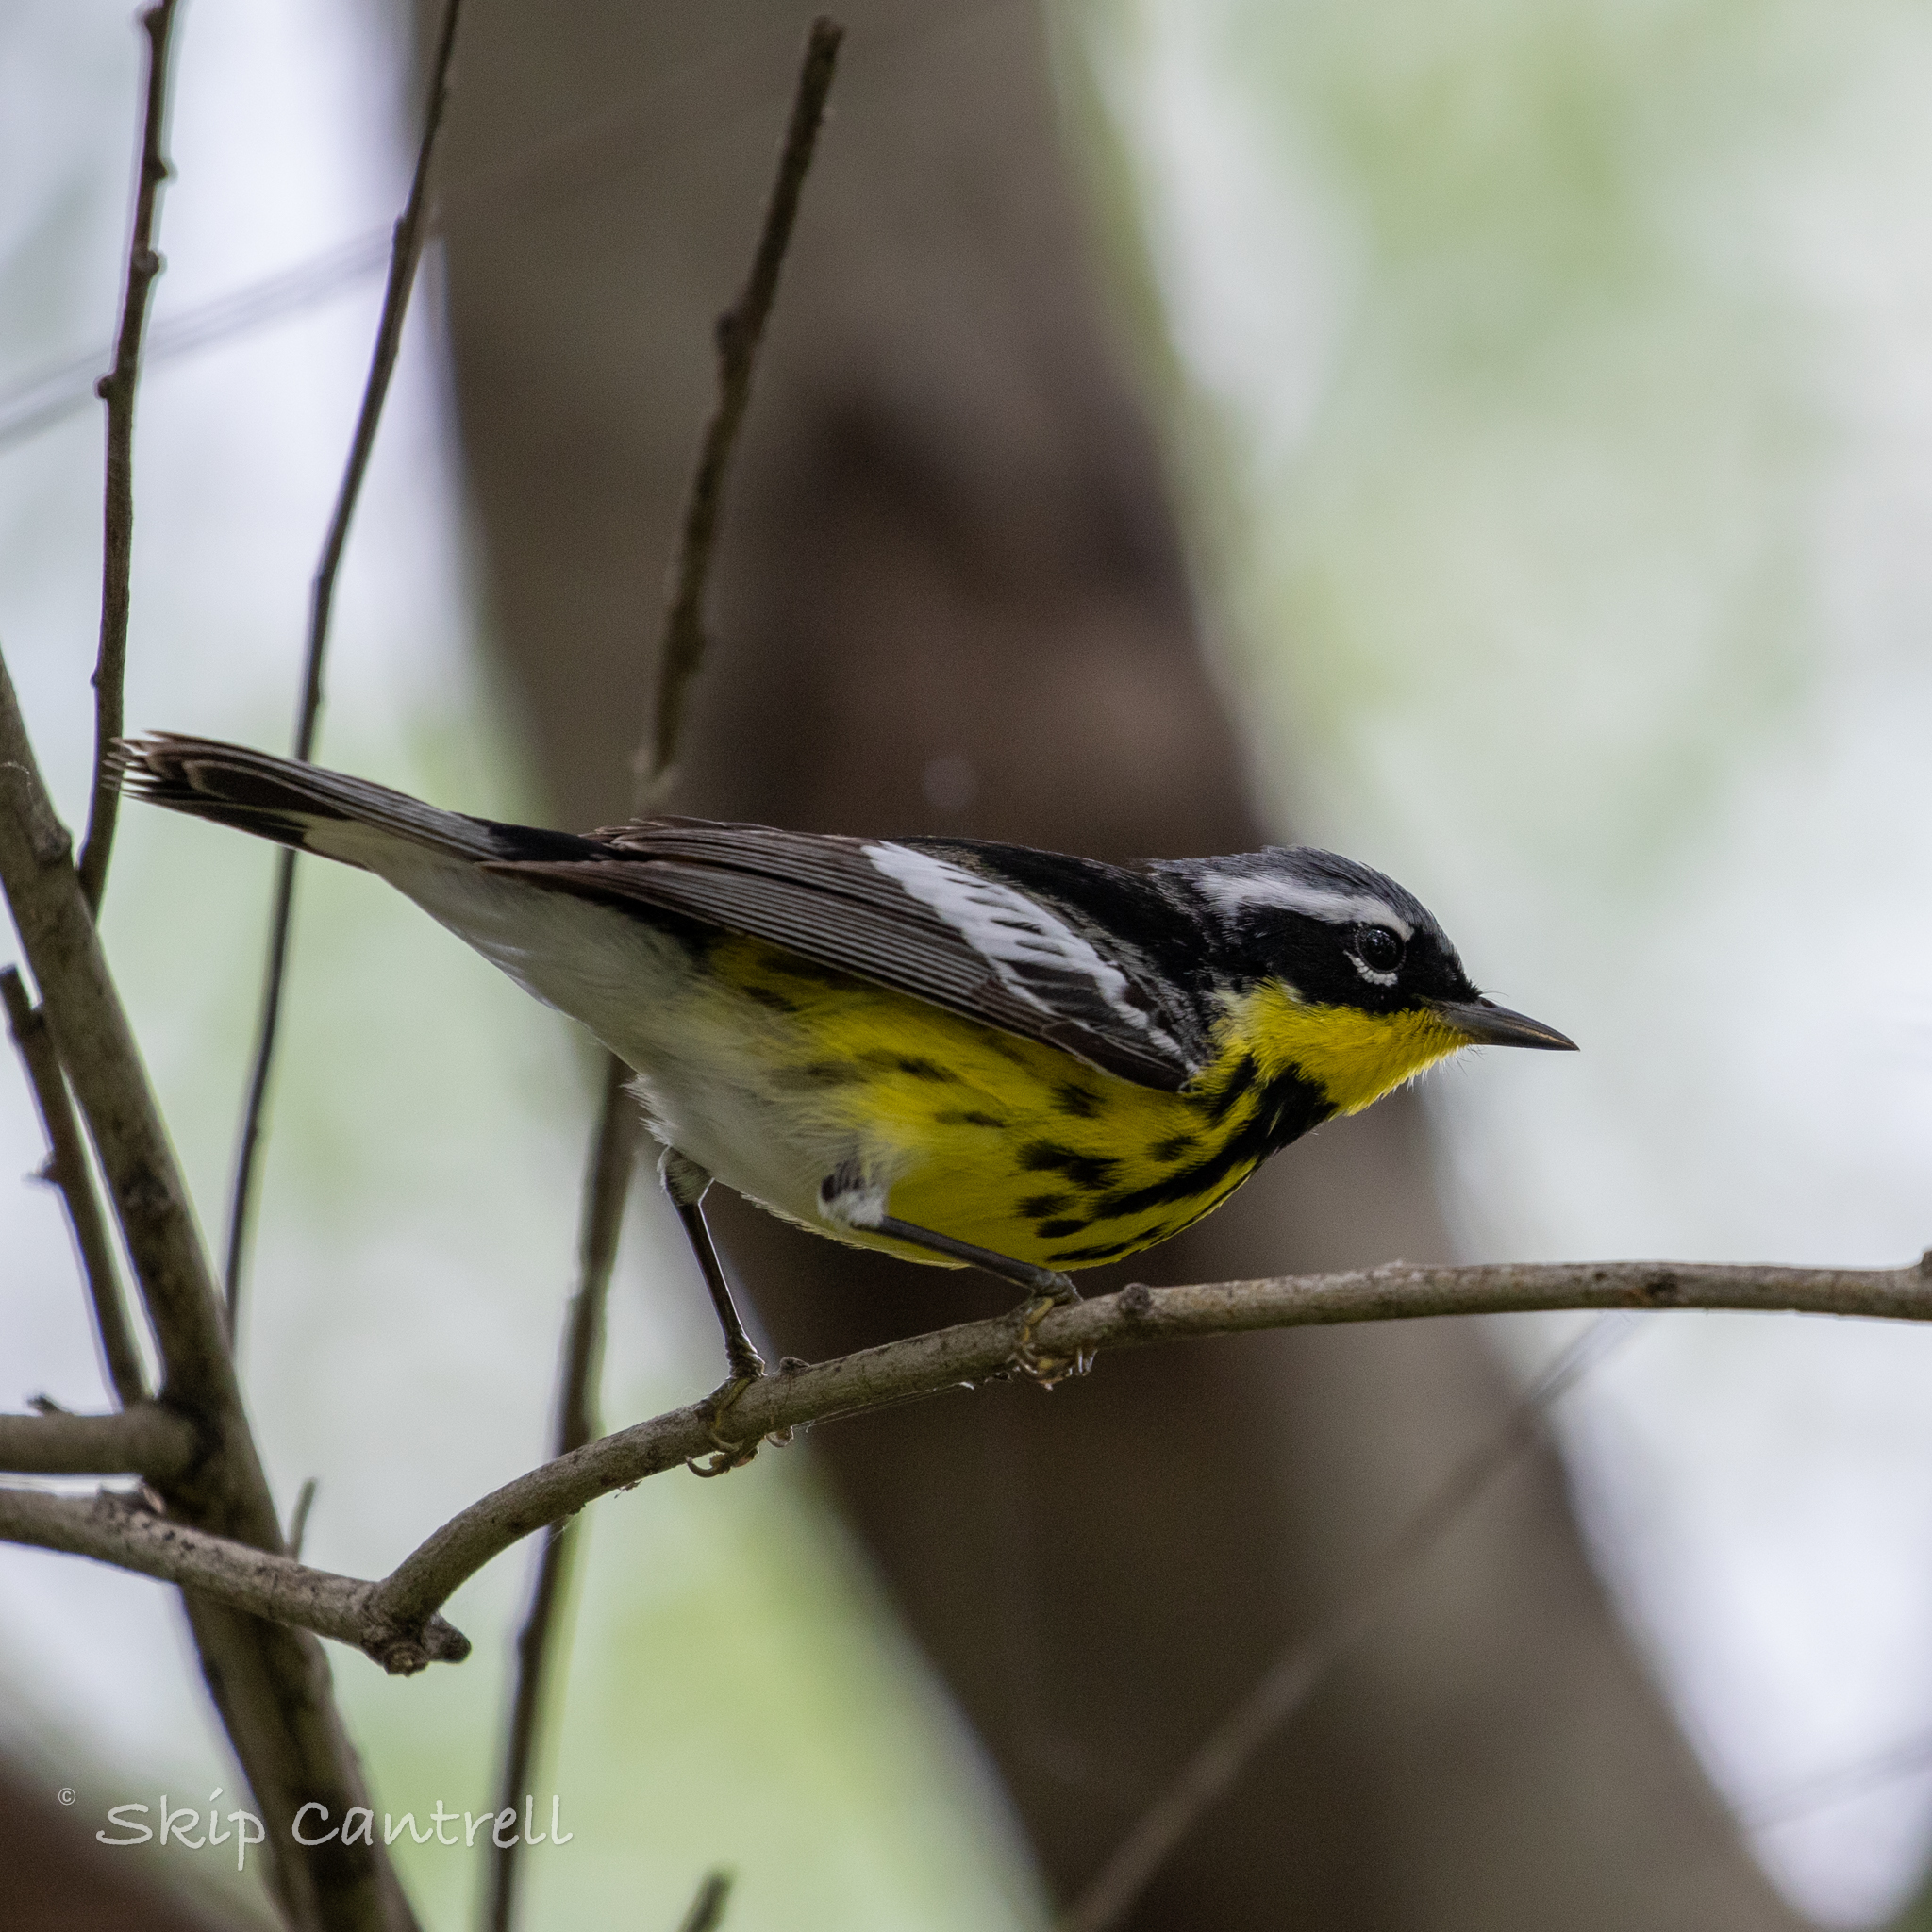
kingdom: Animalia
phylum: Chordata
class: Aves
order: Passeriformes
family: Parulidae
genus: Setophaga
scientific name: Setophaga magnolia
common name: Magnolia warbler
